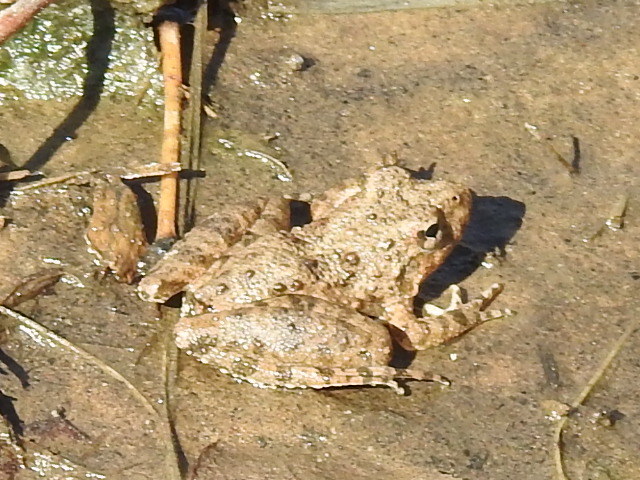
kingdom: Animalia
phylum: Chordata
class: Amphibia
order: Anura
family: Hylidae
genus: Acris
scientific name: Acris blanchardi
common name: Blanchard's cricket frog
